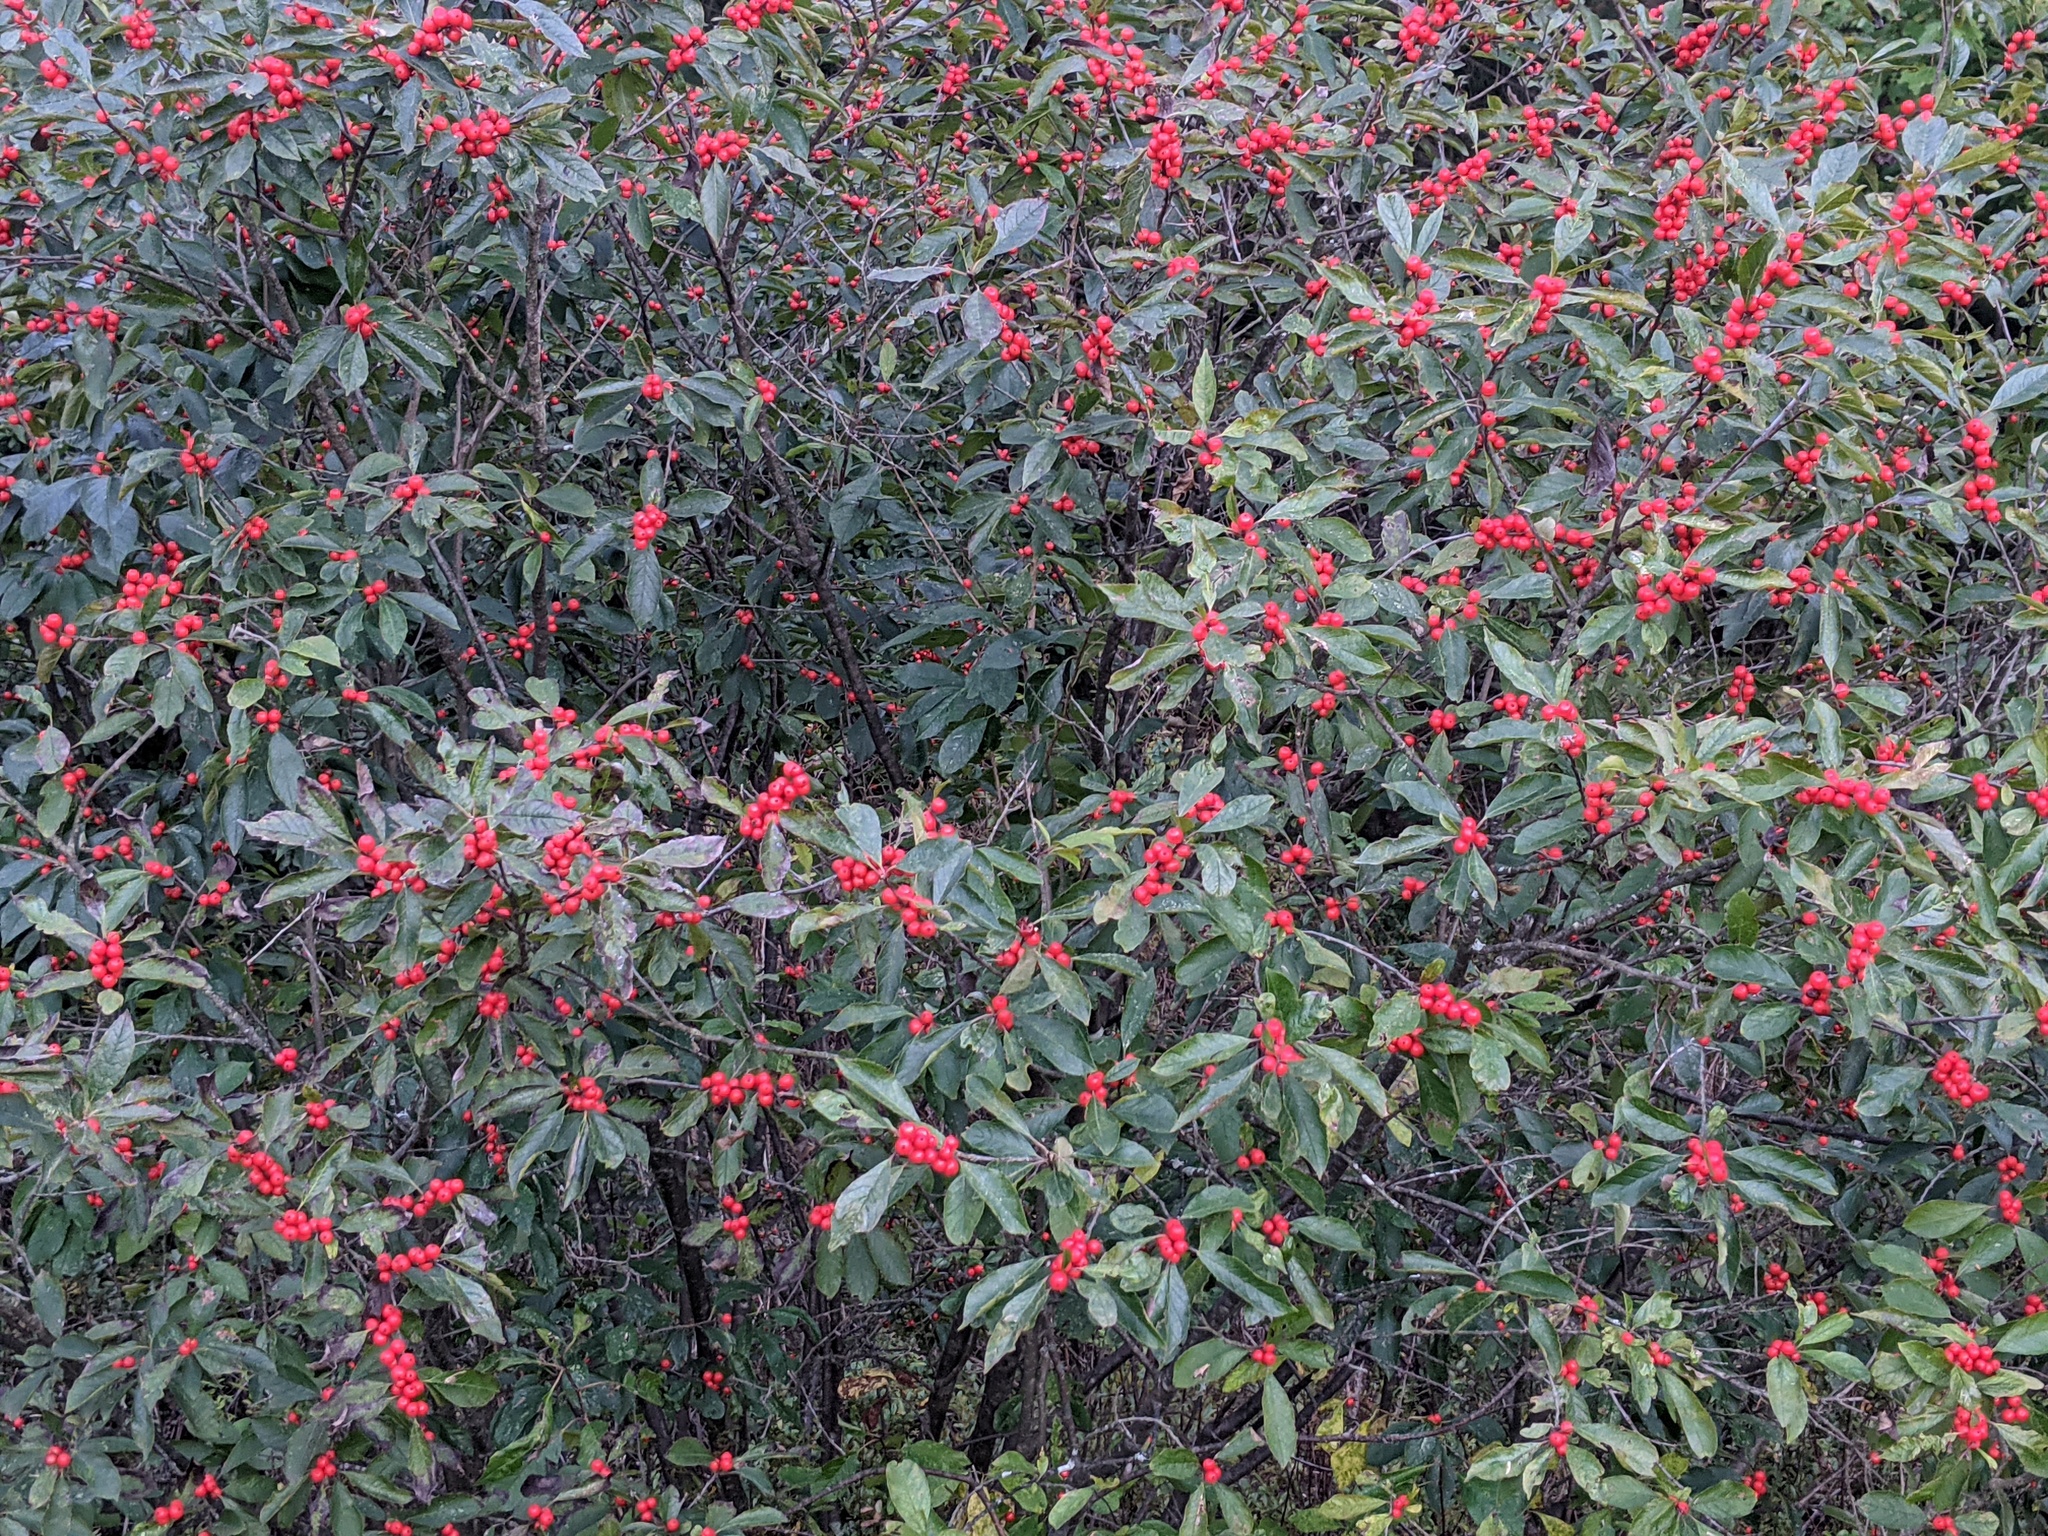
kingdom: Plantae
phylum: Tracheophyta
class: Magnoliopsida
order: Aquifoliales
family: Aquifoliaceae
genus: Ilex
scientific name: Ilex verticillata
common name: Virginia winterberry
